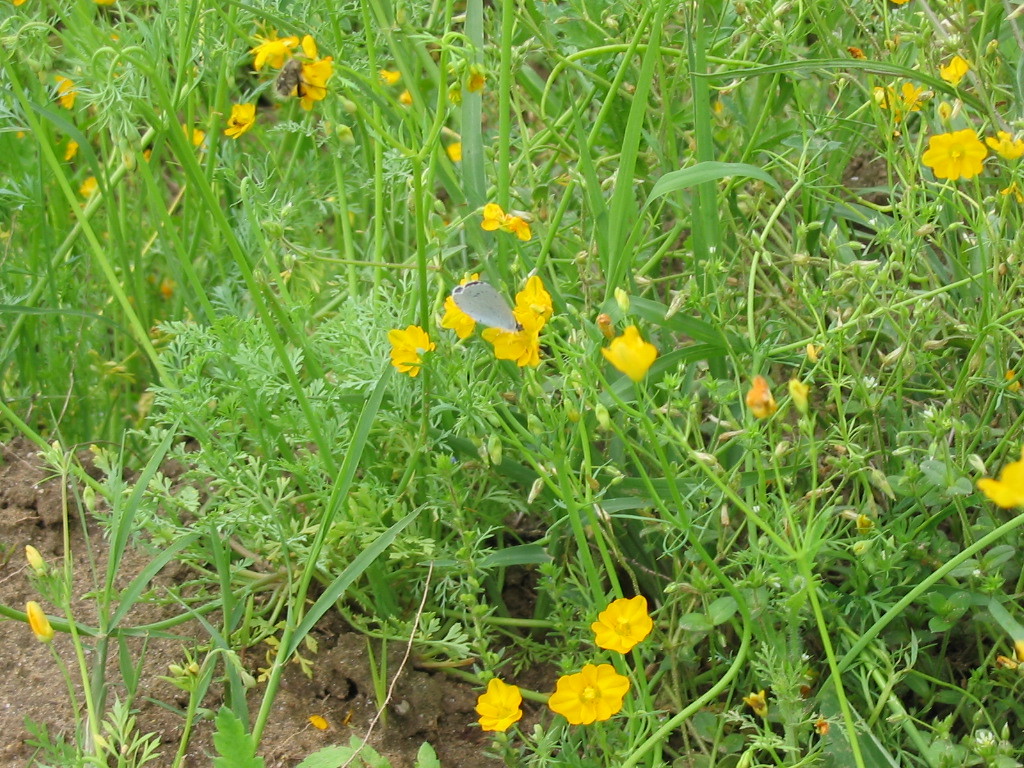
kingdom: Animalia
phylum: Arthropoda
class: Insecta
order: Lepidoptera
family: Lycaenidae
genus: Celastrina
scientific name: Celastrina argiolus
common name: Holly blue
